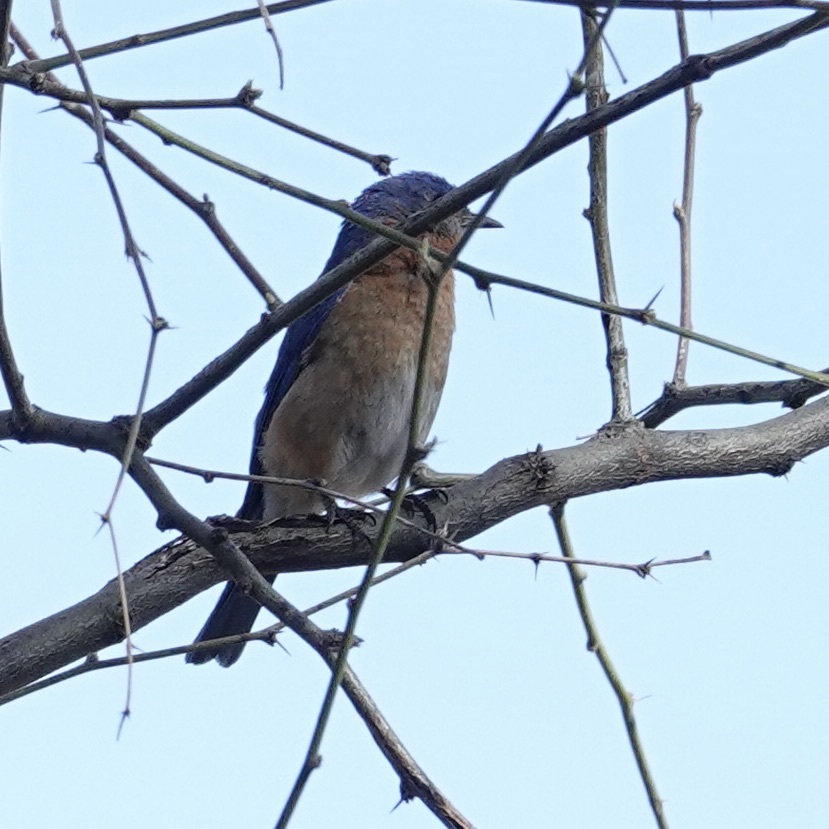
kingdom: Animalia
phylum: Chordata
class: Aves
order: Passeriformes
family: Turdidae
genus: Sialia
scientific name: Sialia sialis
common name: Eastern bluebird
